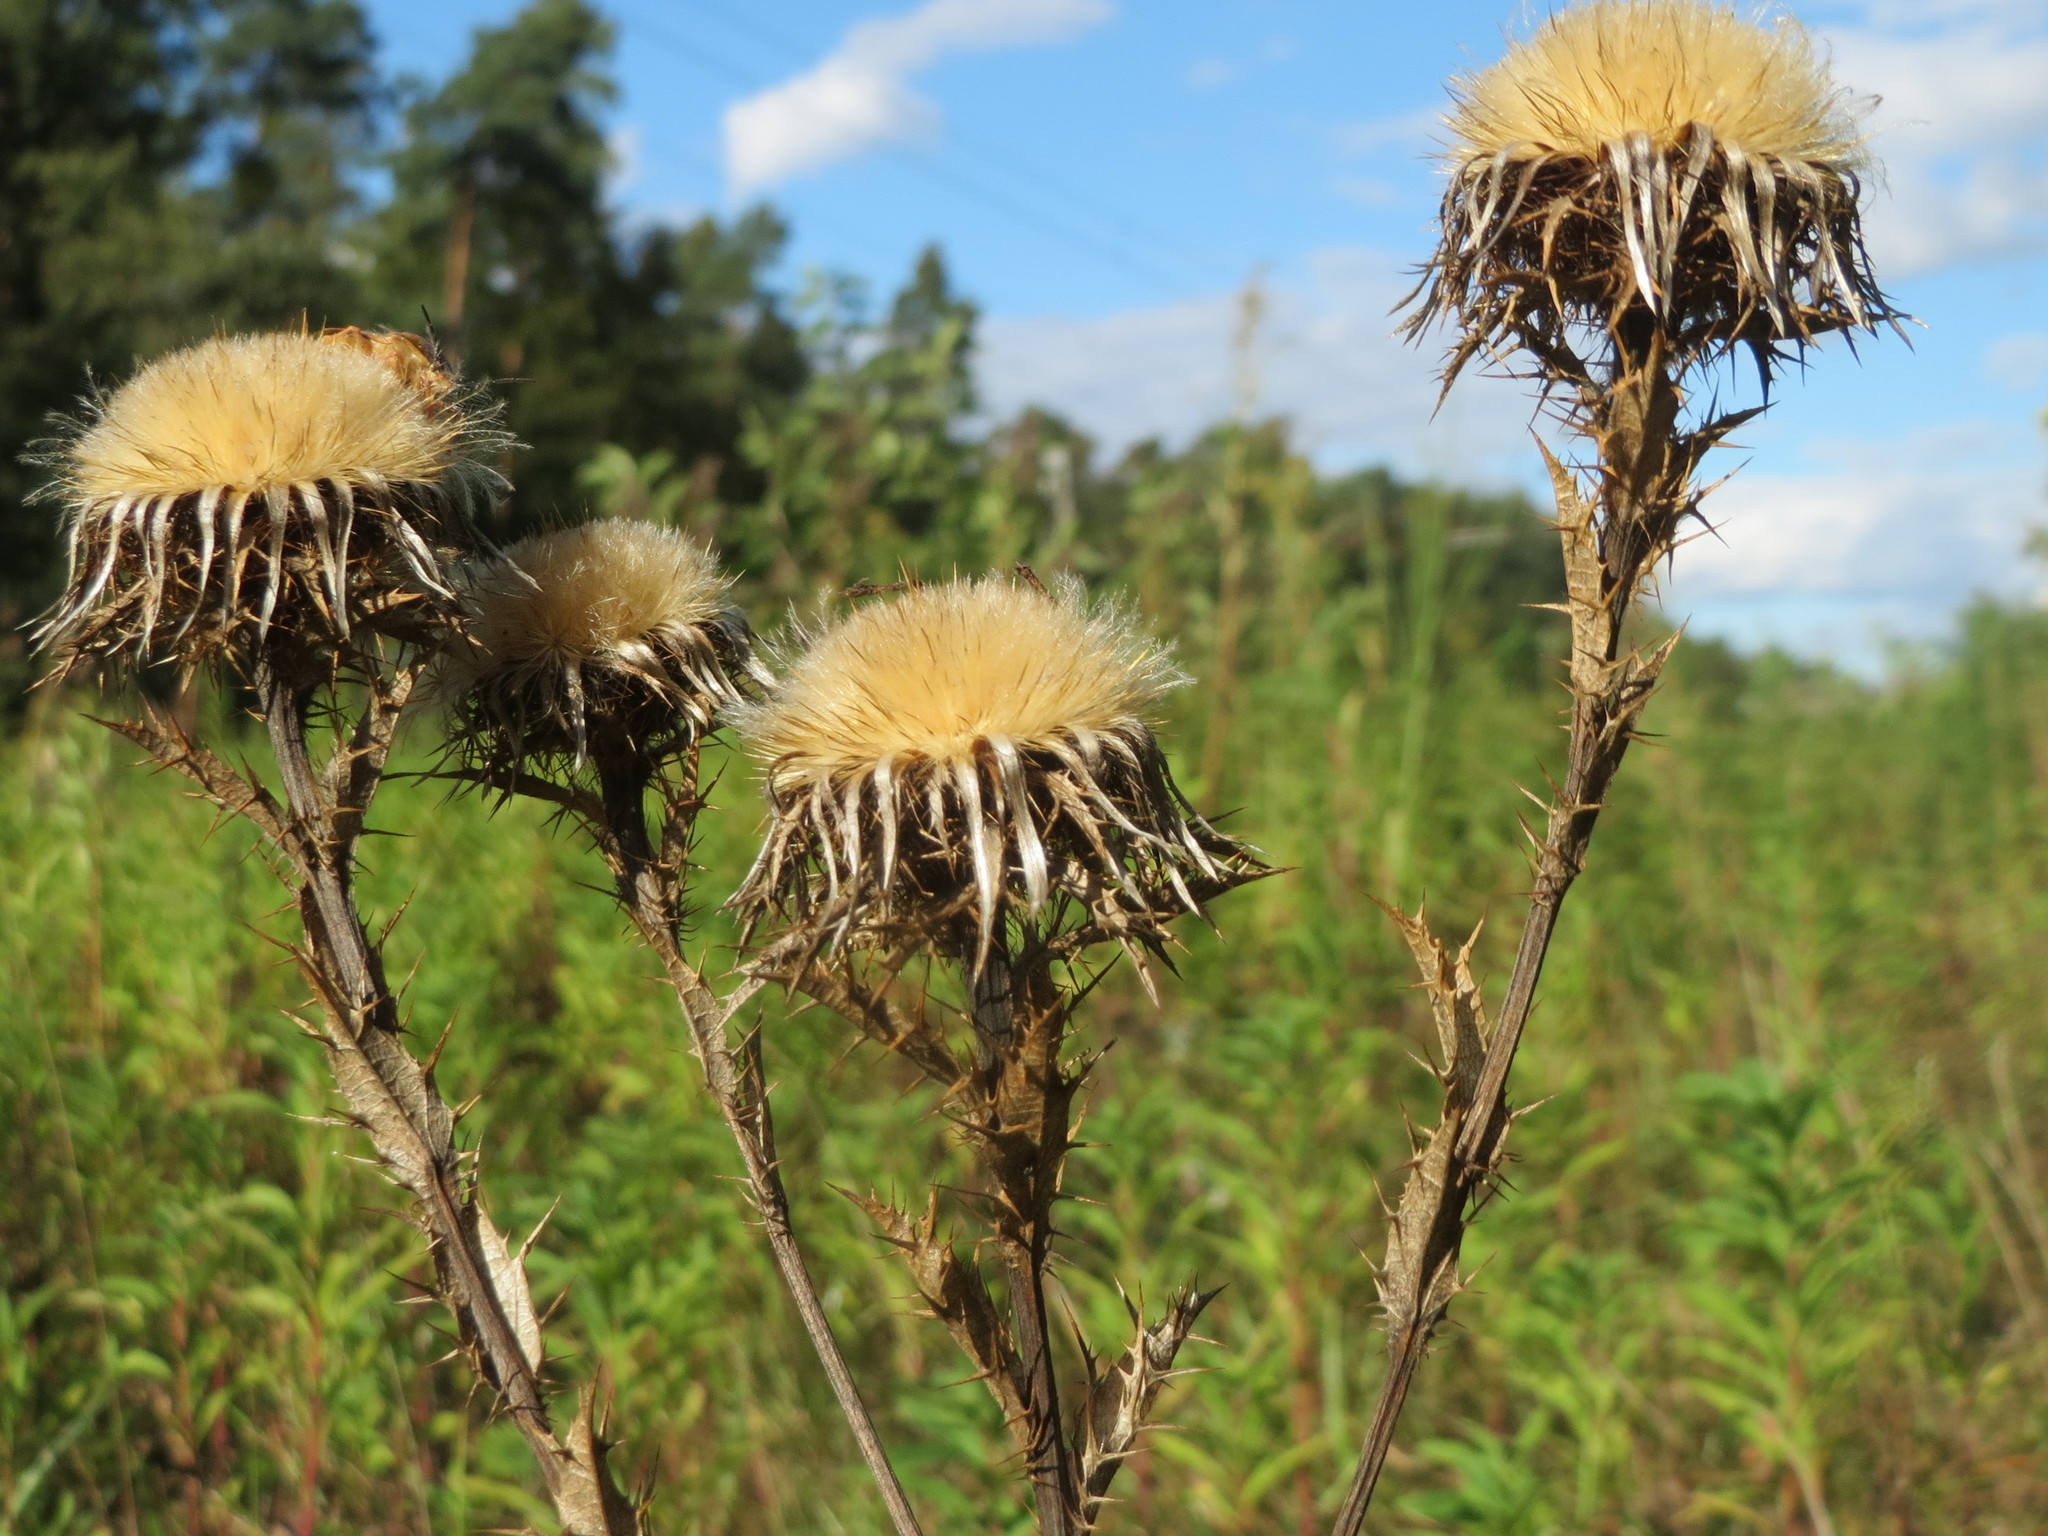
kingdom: Plantae
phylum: Tracheophyta
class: Magnoliopsida
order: Asterales
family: Asteraceae
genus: Carlina
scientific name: Carlina vulgaris
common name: Carline thistle
